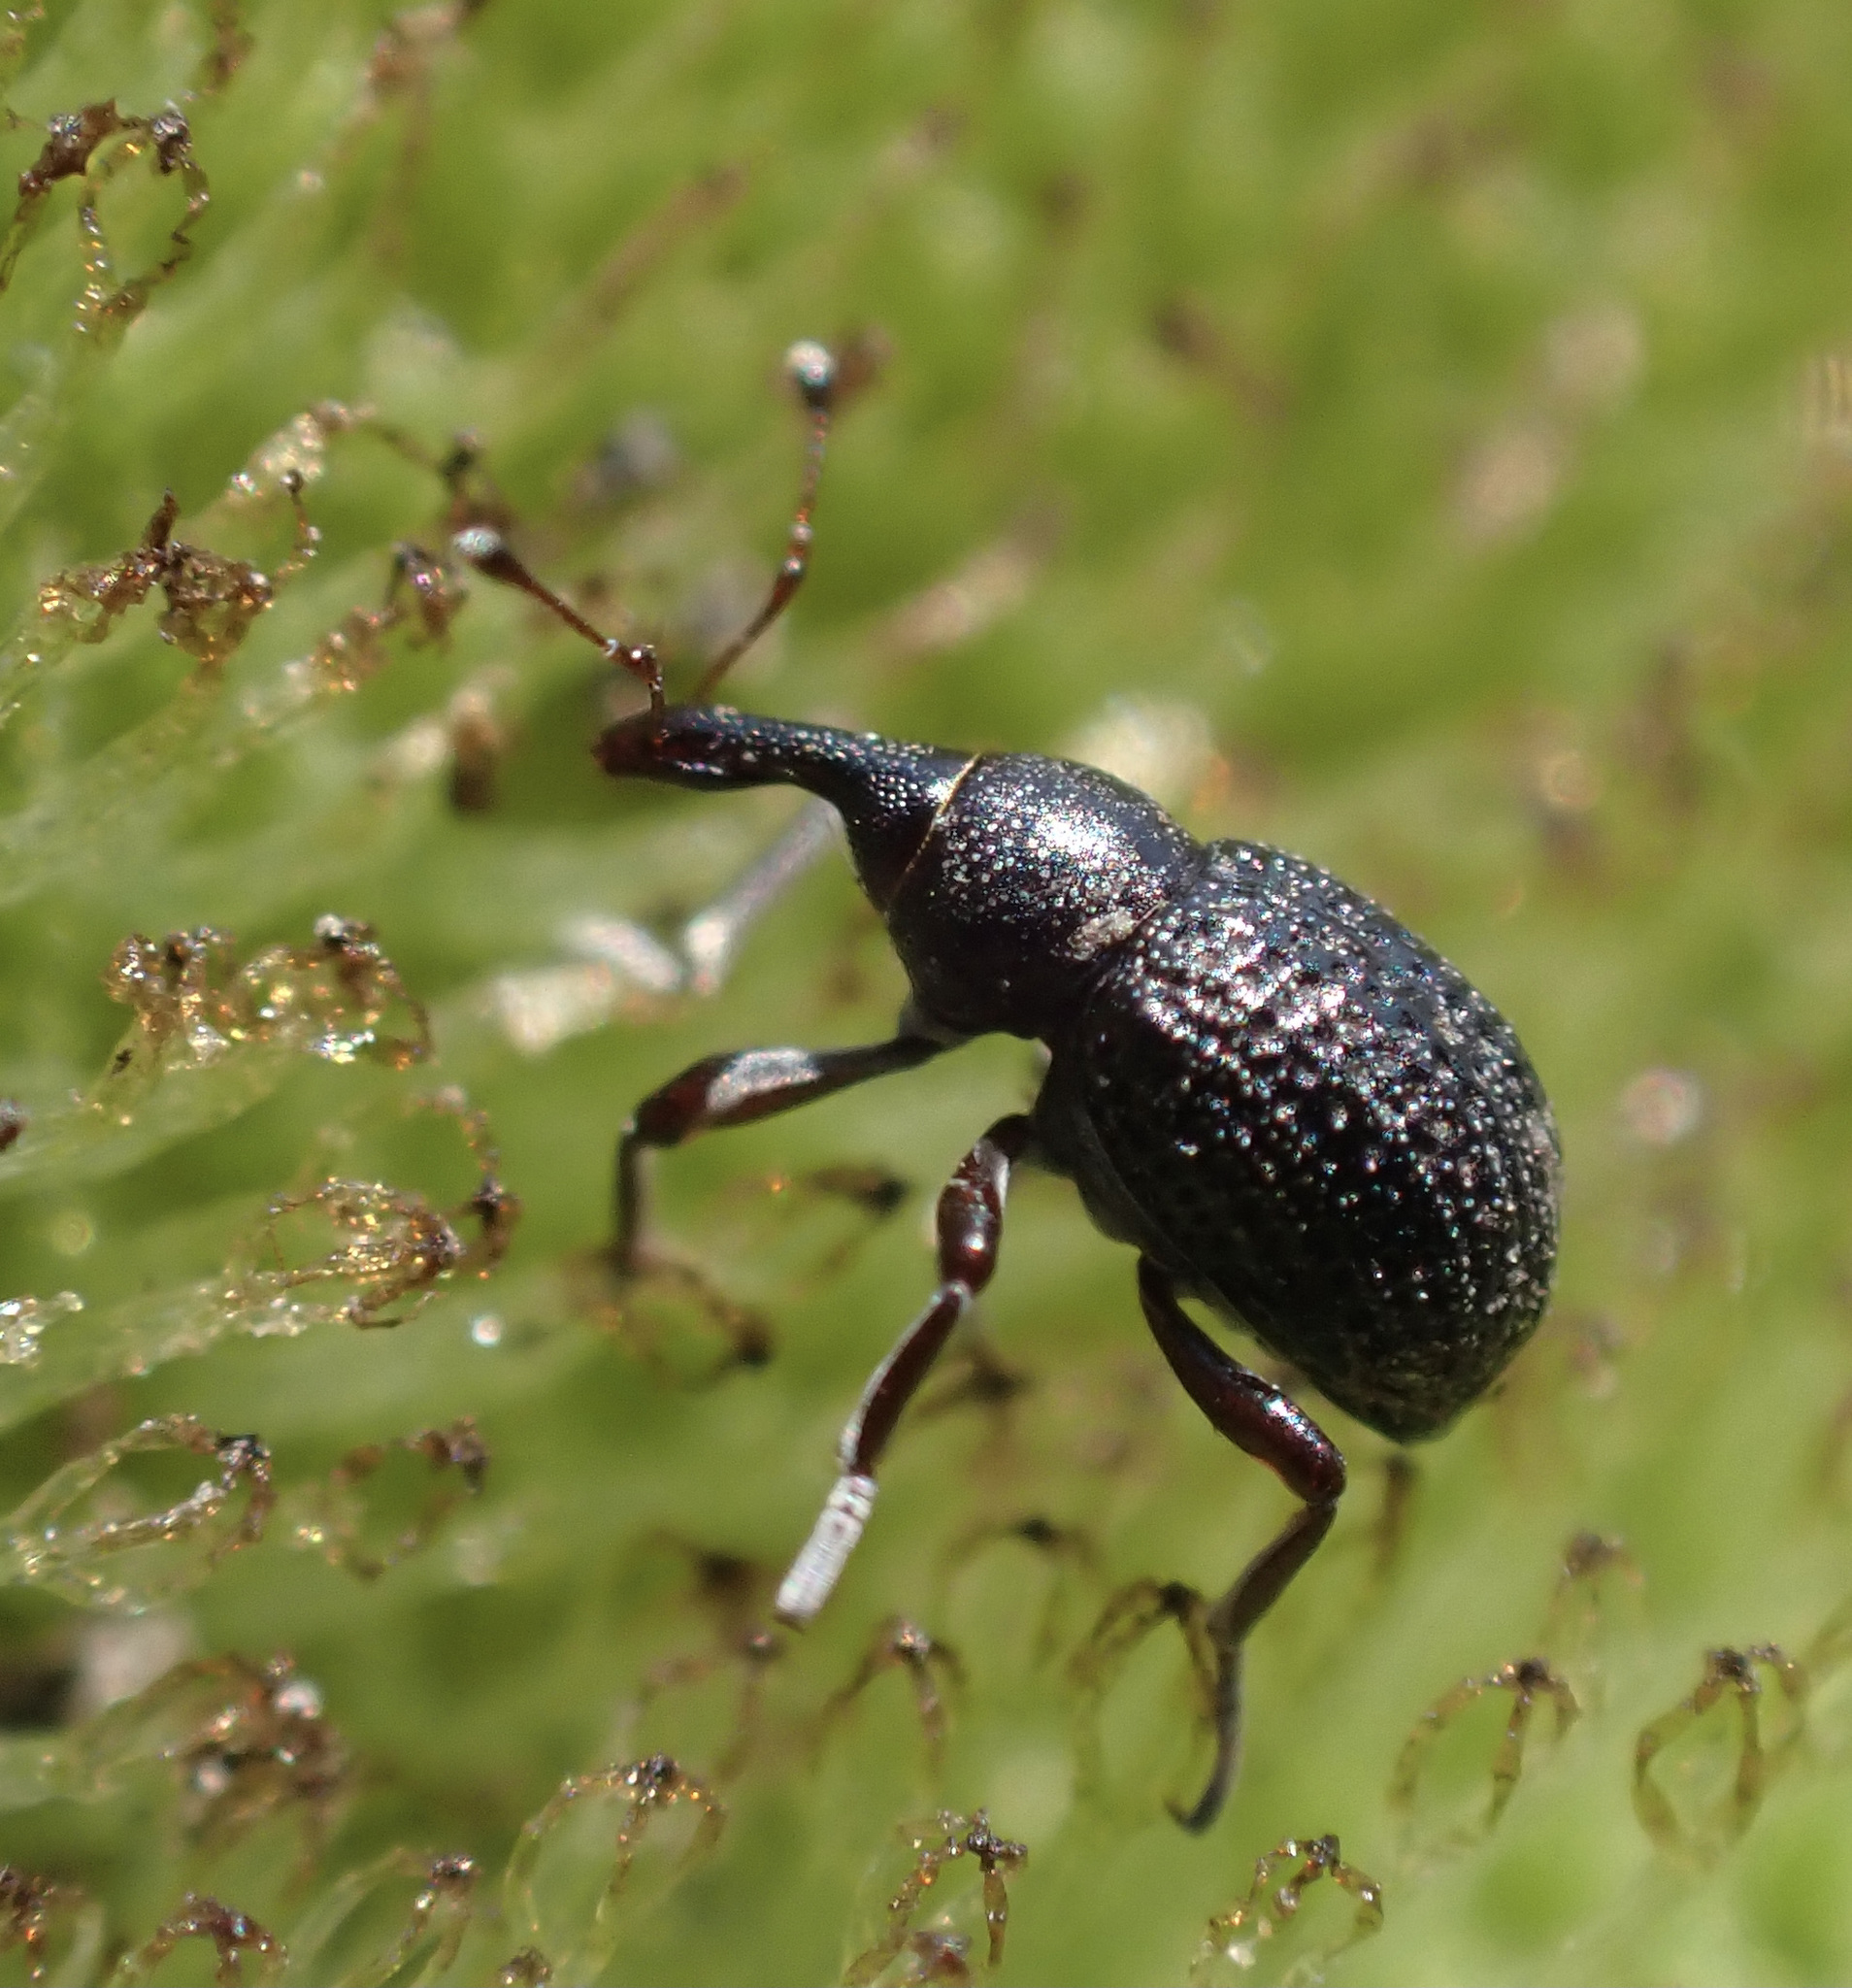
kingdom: Animalia
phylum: Arthropoda
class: Insecta
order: Coleoptera
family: Brachyceridae
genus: Cyrtobagous
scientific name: Cyrtobagous salviniae
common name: Salvinia weevil
